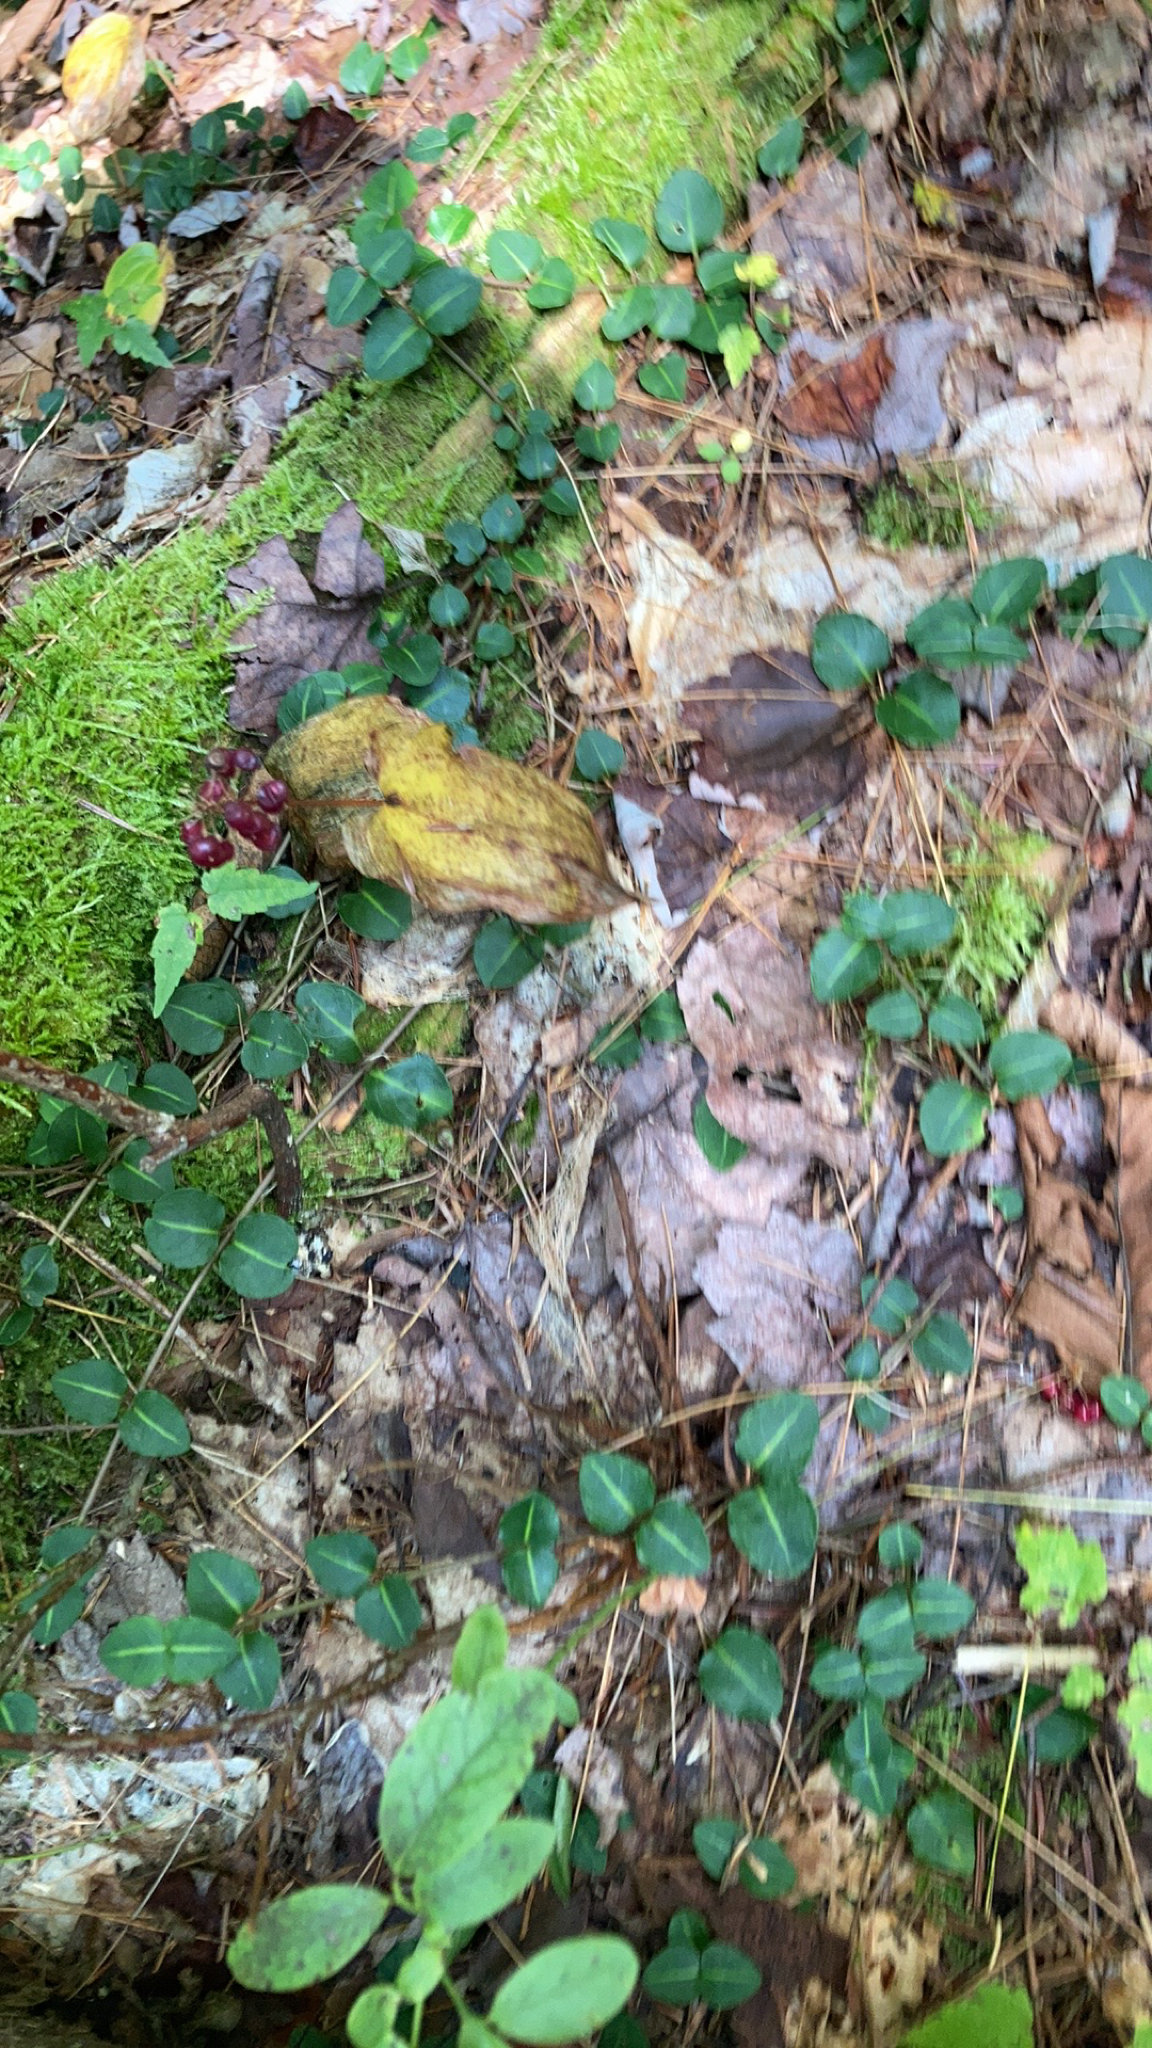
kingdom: Plantae
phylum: Tracheophyta
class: Magnoliopsida
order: Gentianales
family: Rubiaceae
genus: Mitchella
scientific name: Mitchella repens
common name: Partridge-berry
